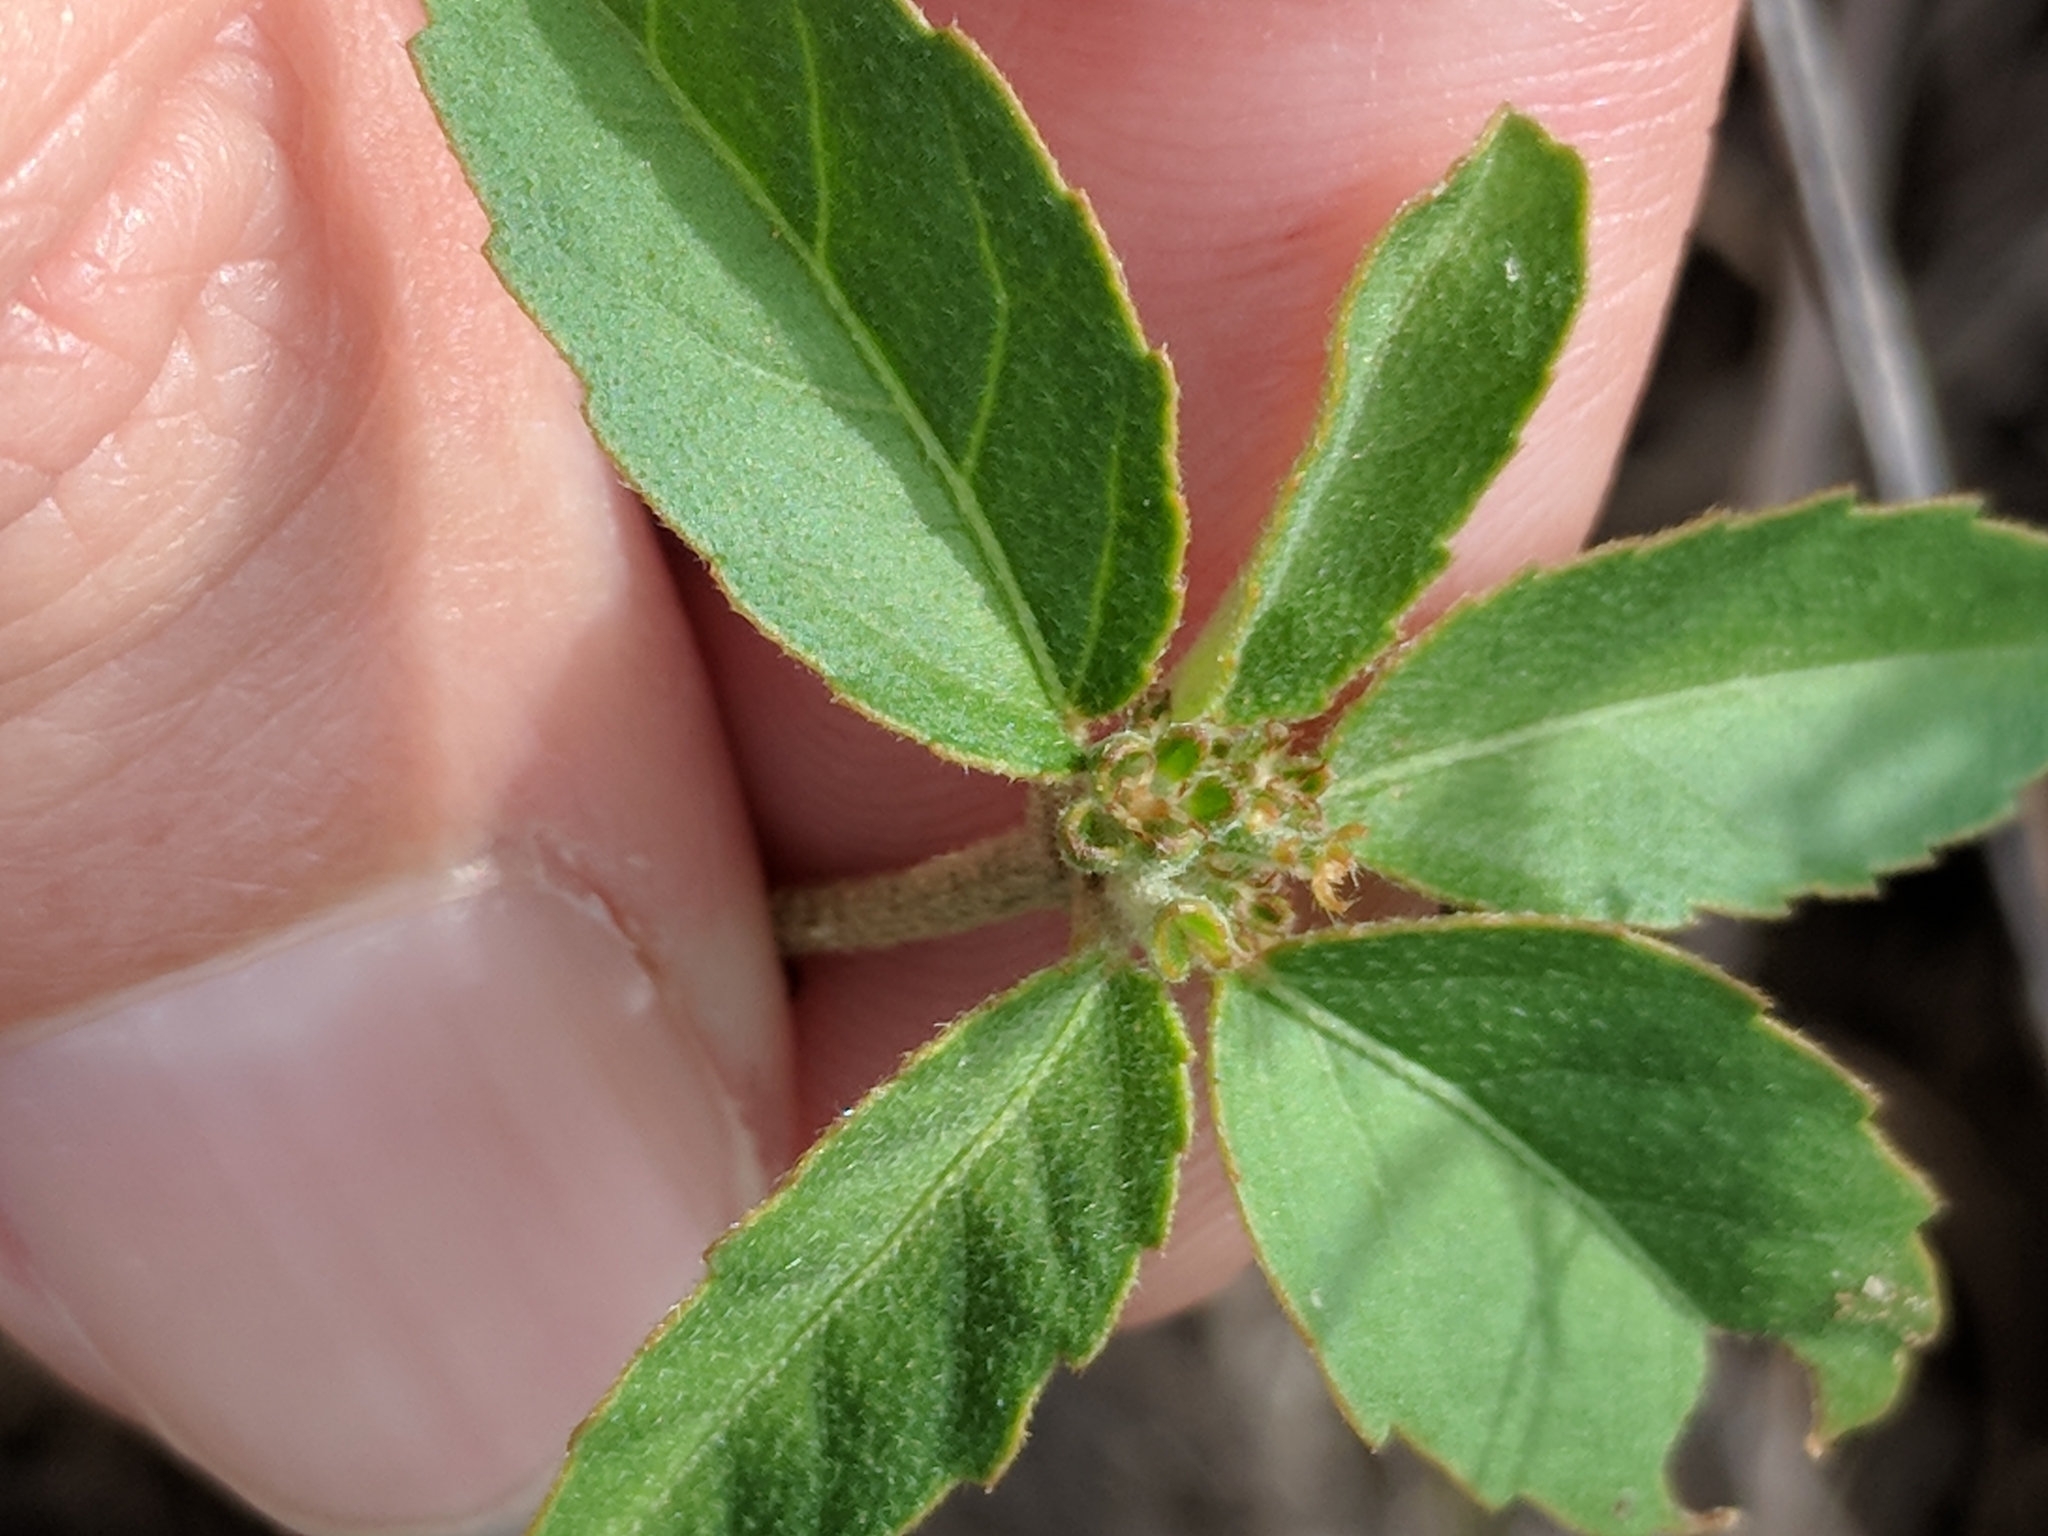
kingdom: Plantae
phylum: Tracheophyta
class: Magnoliopsida
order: Malpighiales
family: Euphorbiaceae
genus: Croton
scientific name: Croton glandulosus
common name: Tropic croton
